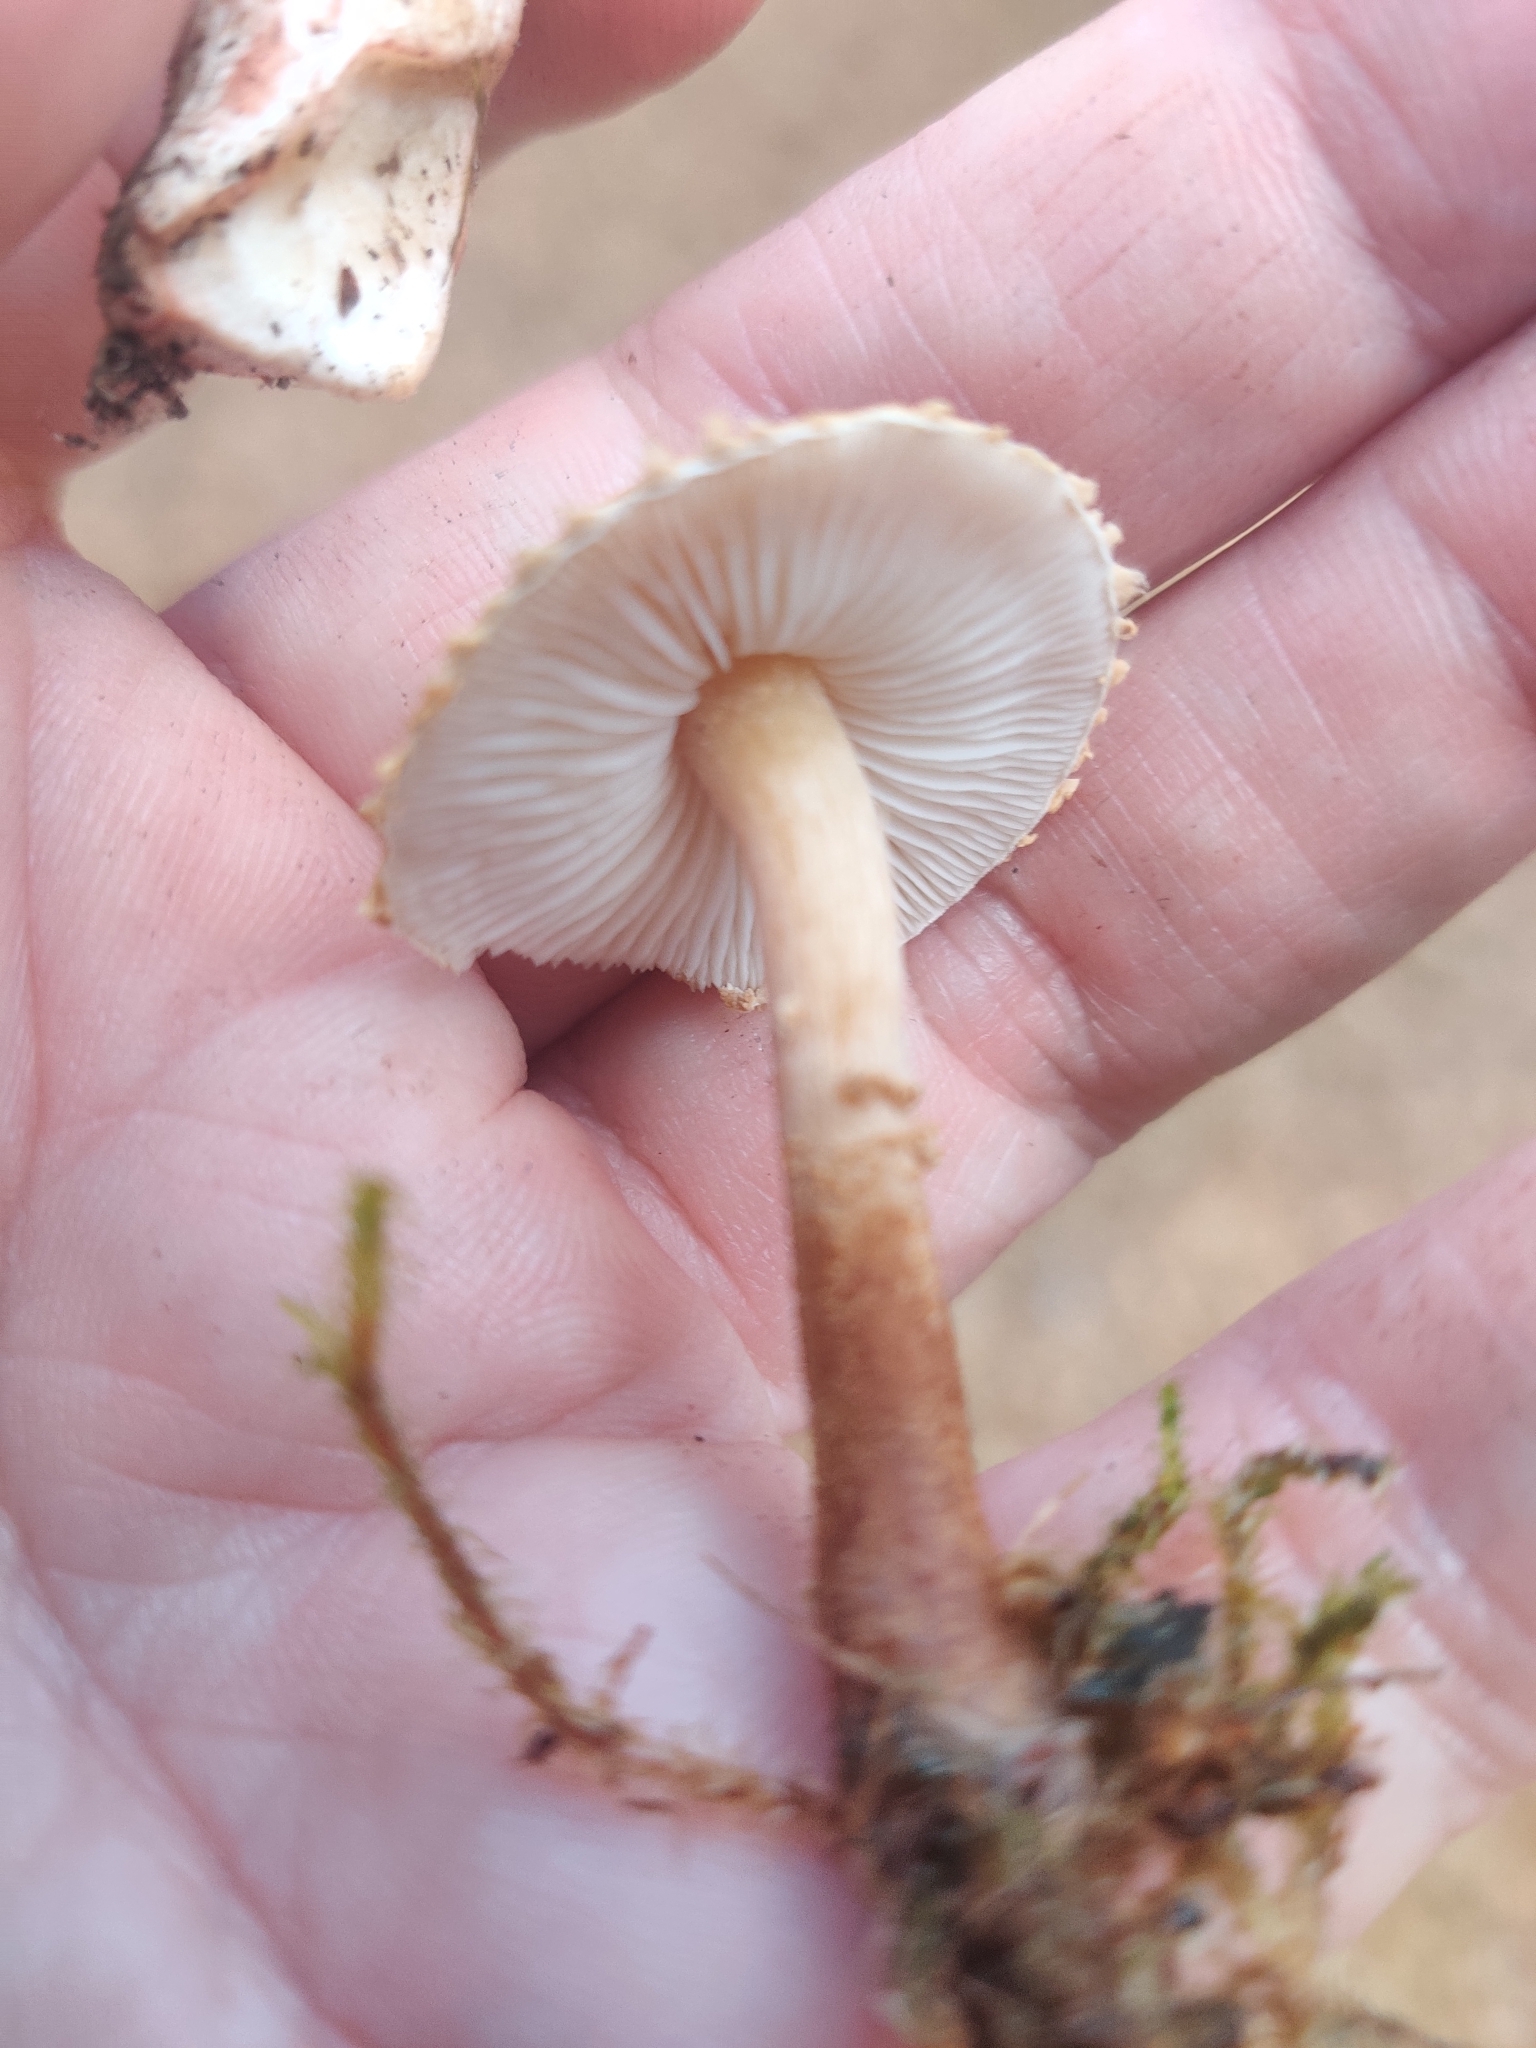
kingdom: Fungi
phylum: Basidiomycota
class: Agaricomycetes
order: Agaricales
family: Tricholomataceae
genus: Cystoderma
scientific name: Cystoderma amianthinum
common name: Earthy powdercap
